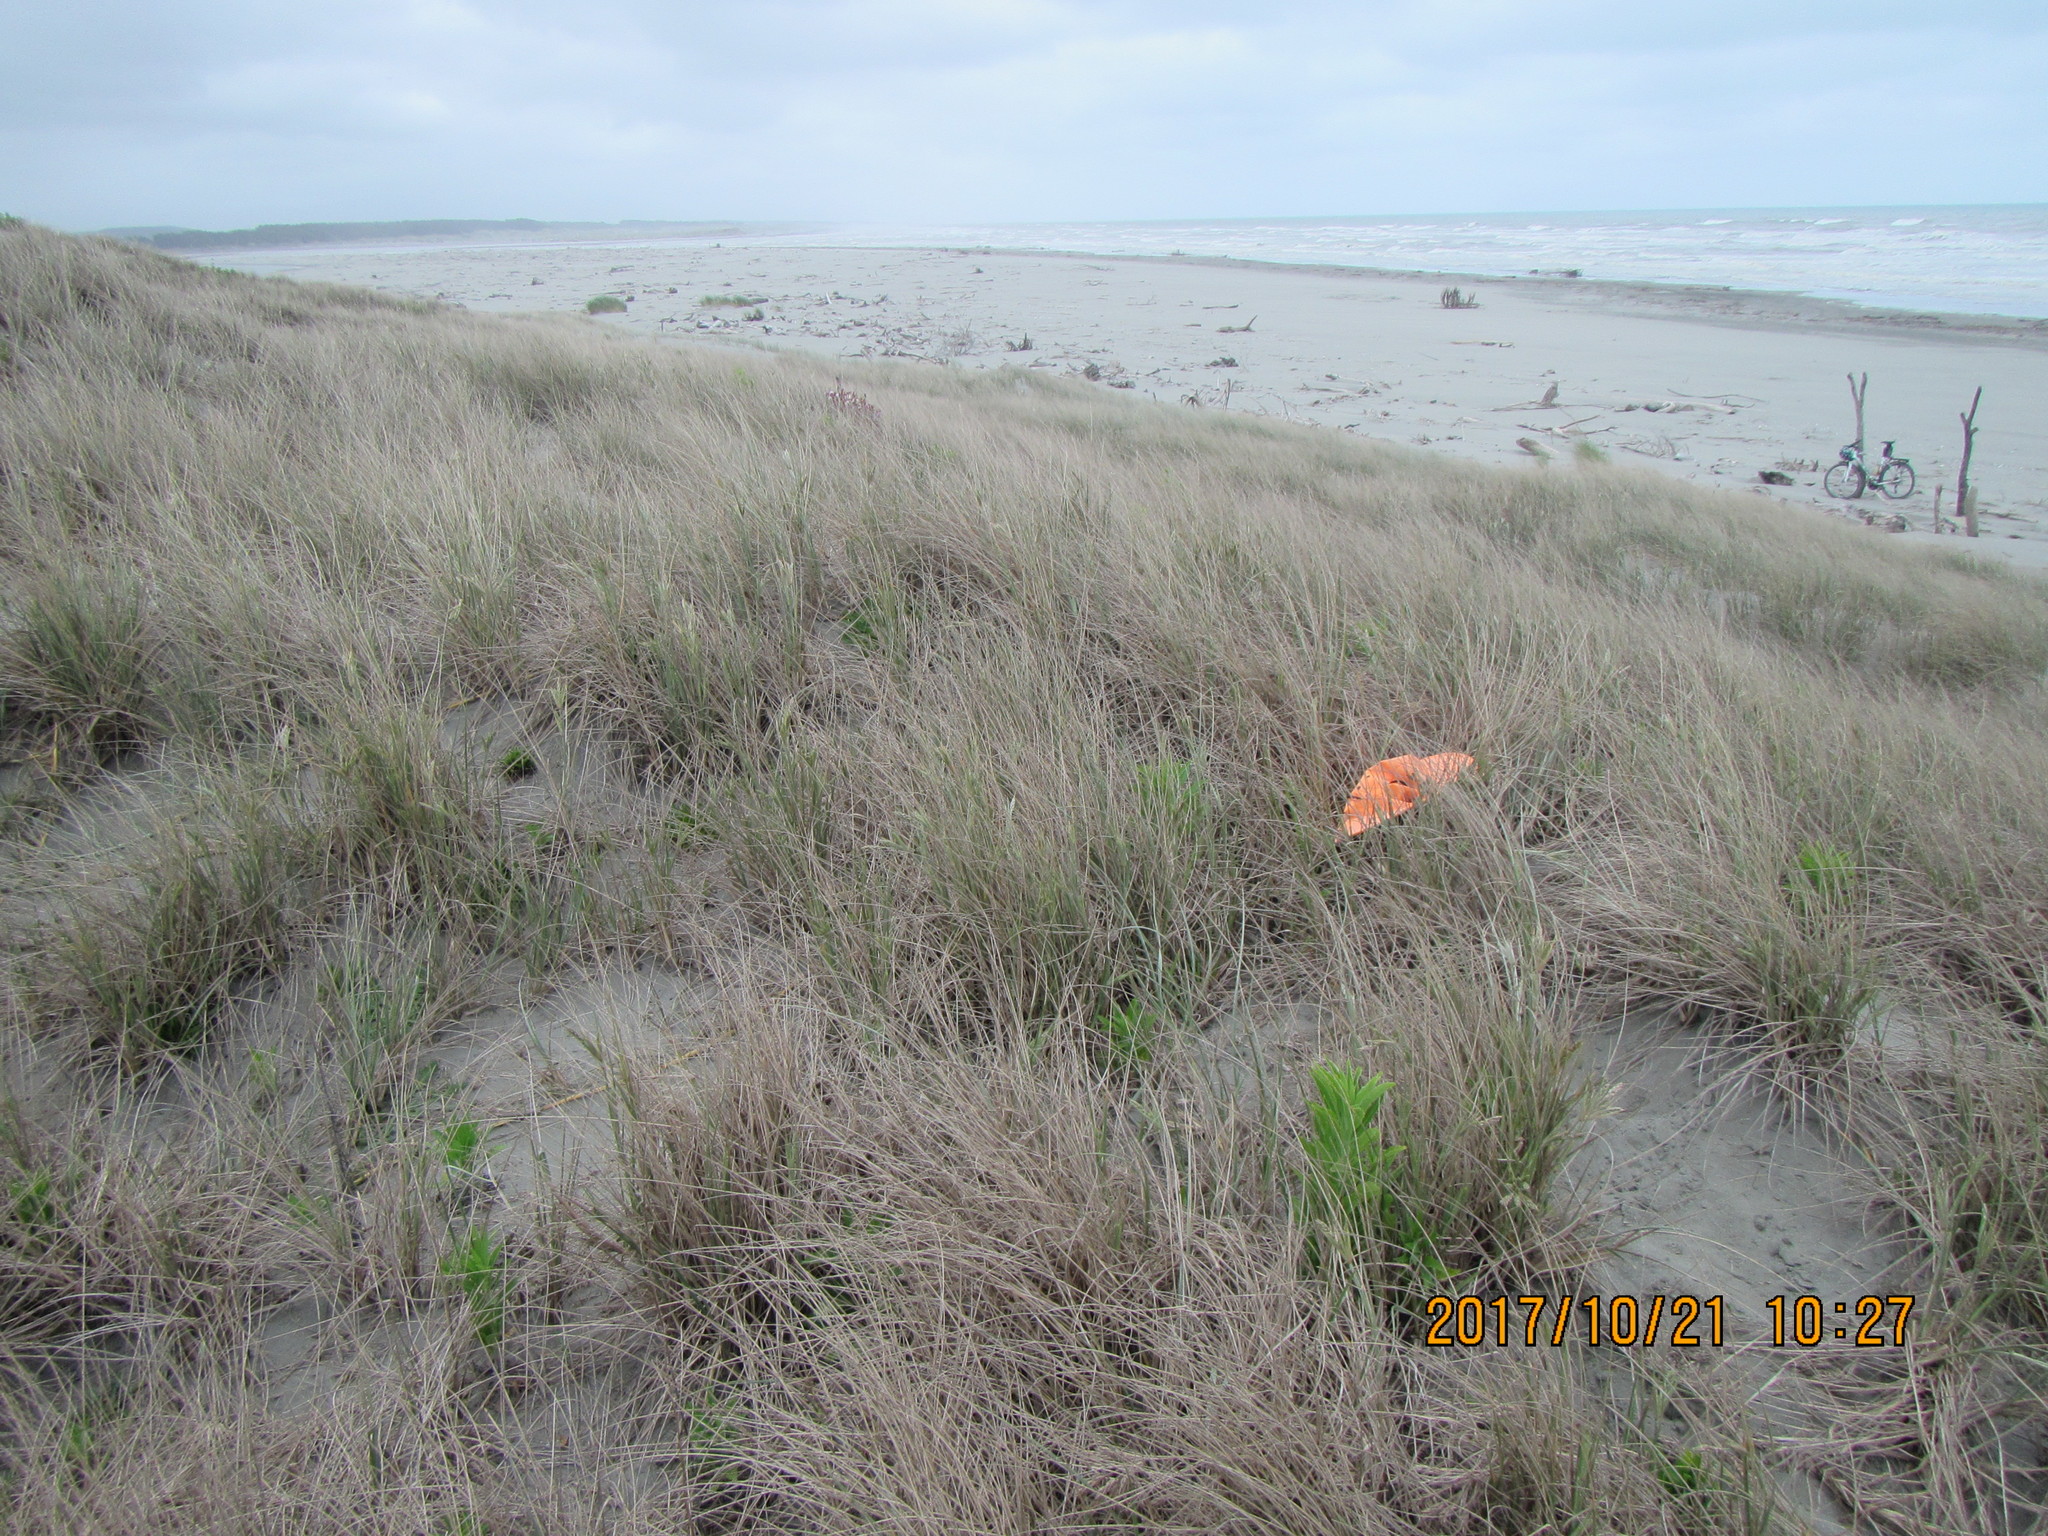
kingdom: Animalia
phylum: Arthropoda
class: Arachnida
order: Araneae
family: Gnaphosidae
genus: Scotophaeus
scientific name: Scotophaeus pretiosus
